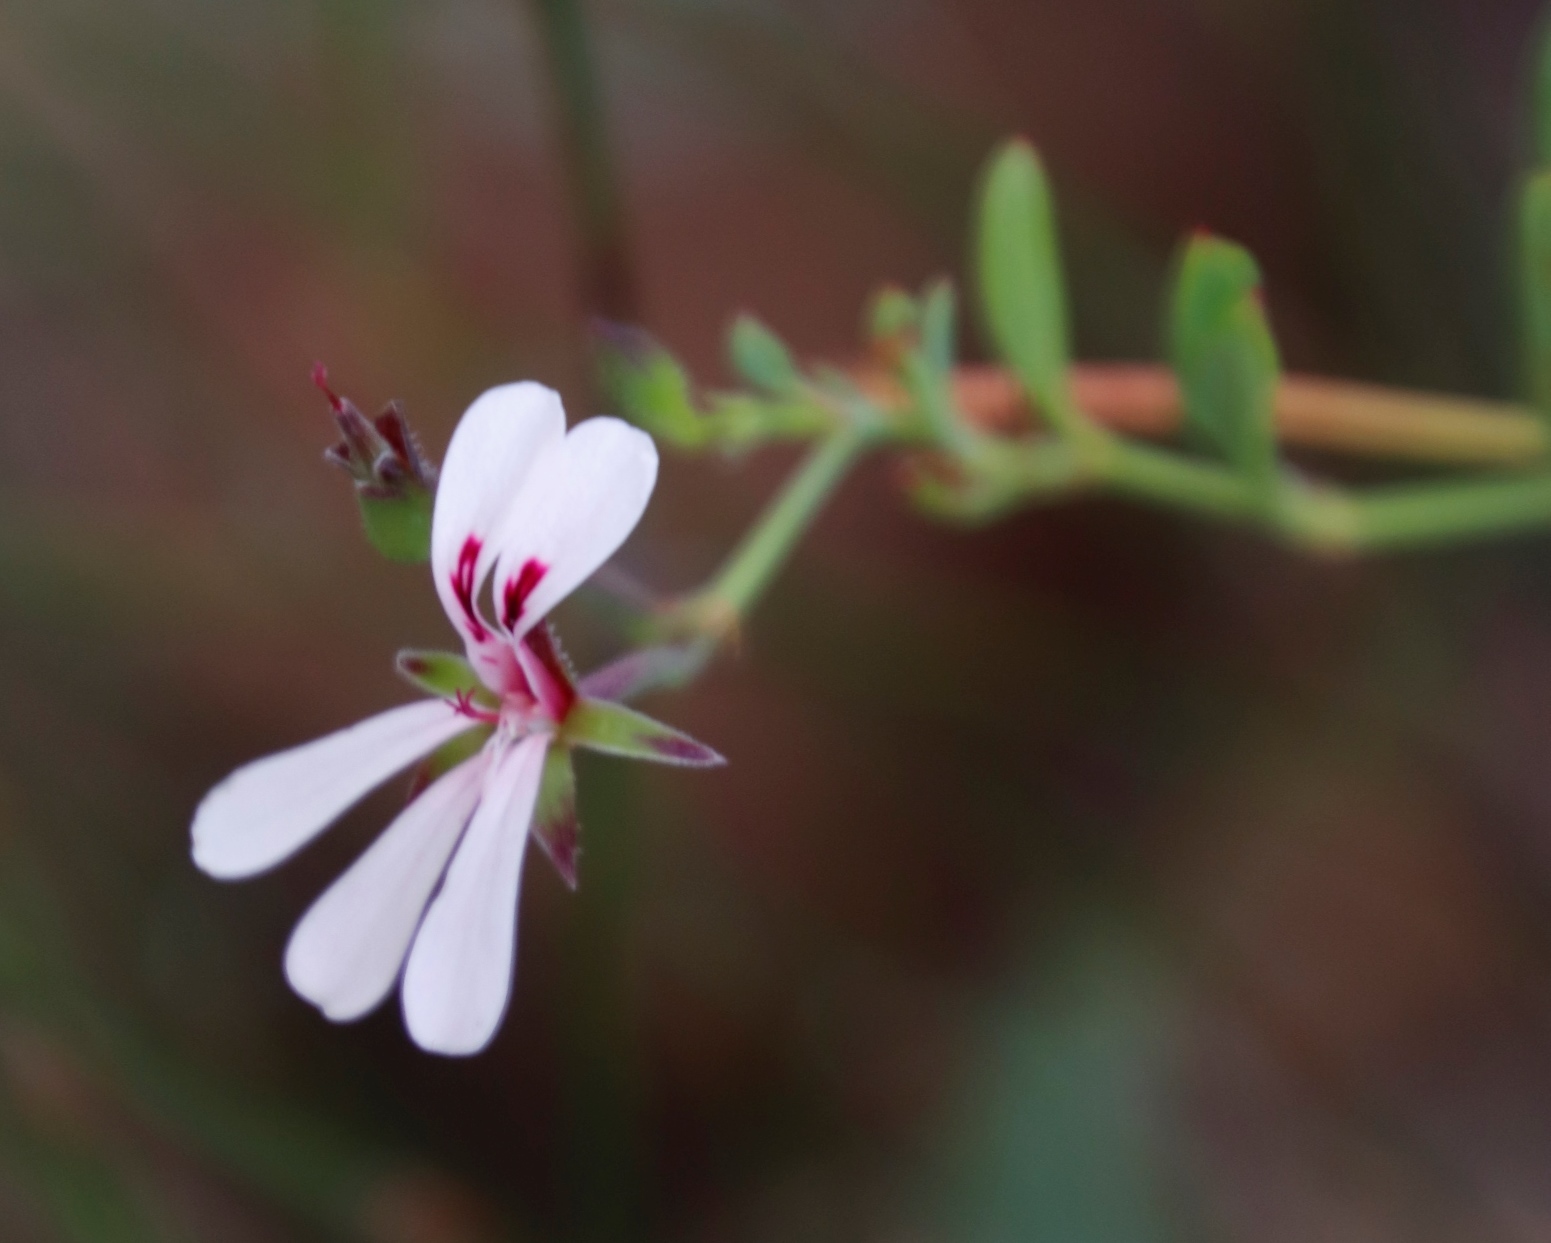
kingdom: Plantae
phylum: Tracheophyta
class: Magnoliopsida
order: Geraniales
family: Geraniaceae
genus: Pelargonium
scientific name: Pelargonium patulum
